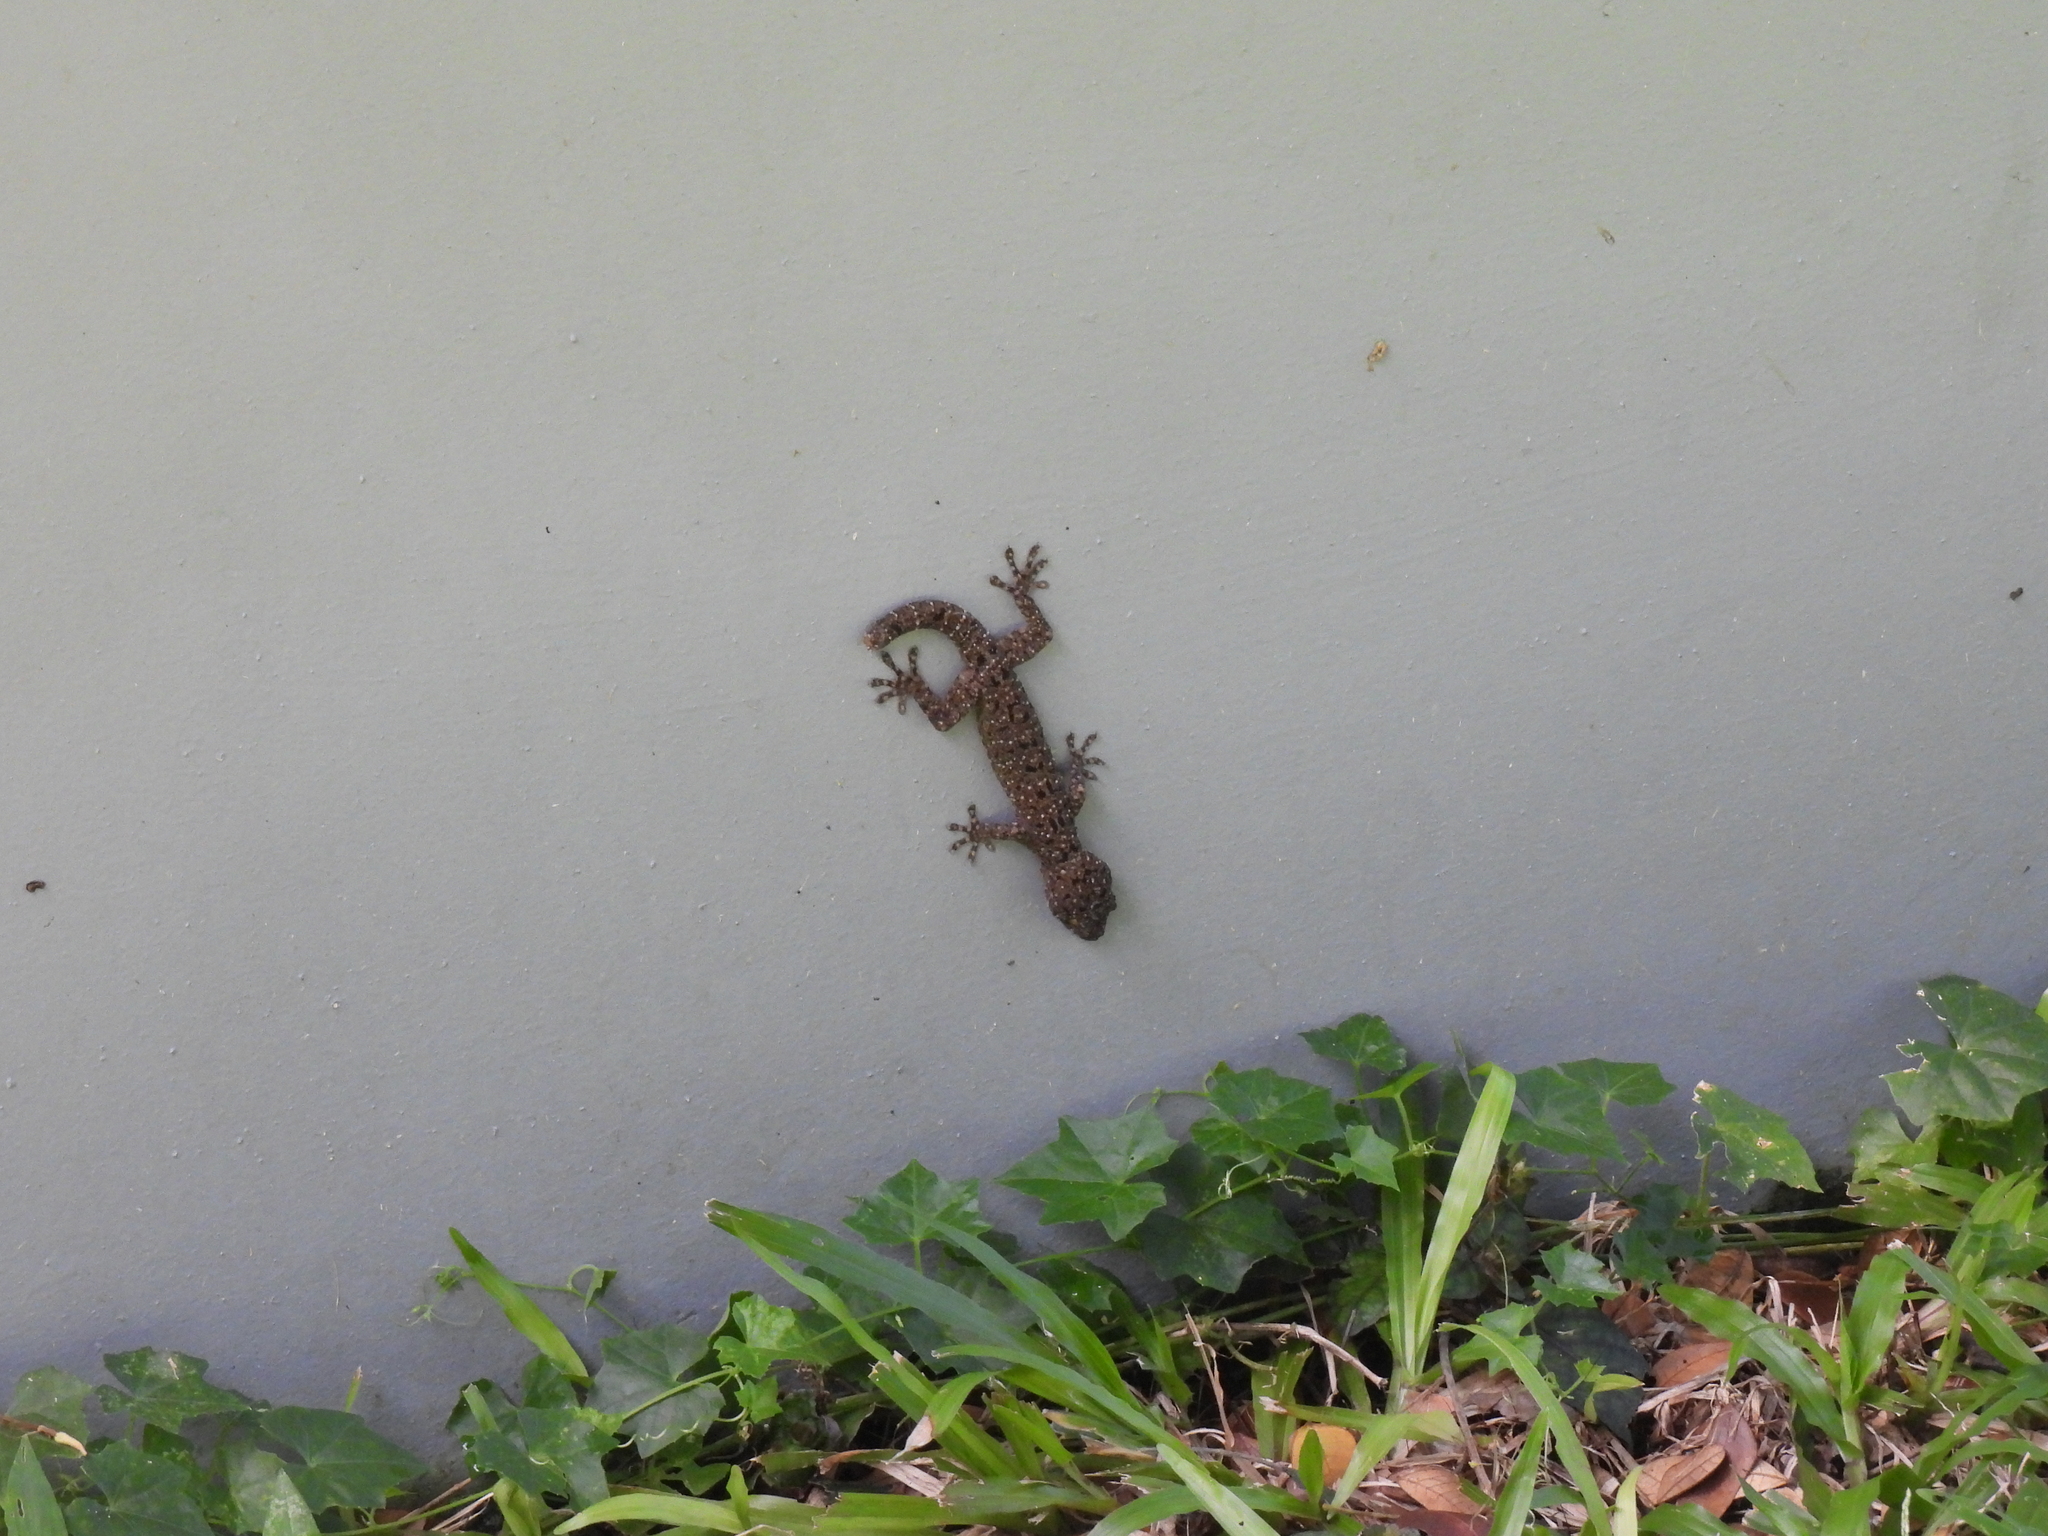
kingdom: Animalia
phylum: Chordata
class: Squamata
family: Gekkonidae
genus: Gekko
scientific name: Gekko monarchus
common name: Spotted house gecko
